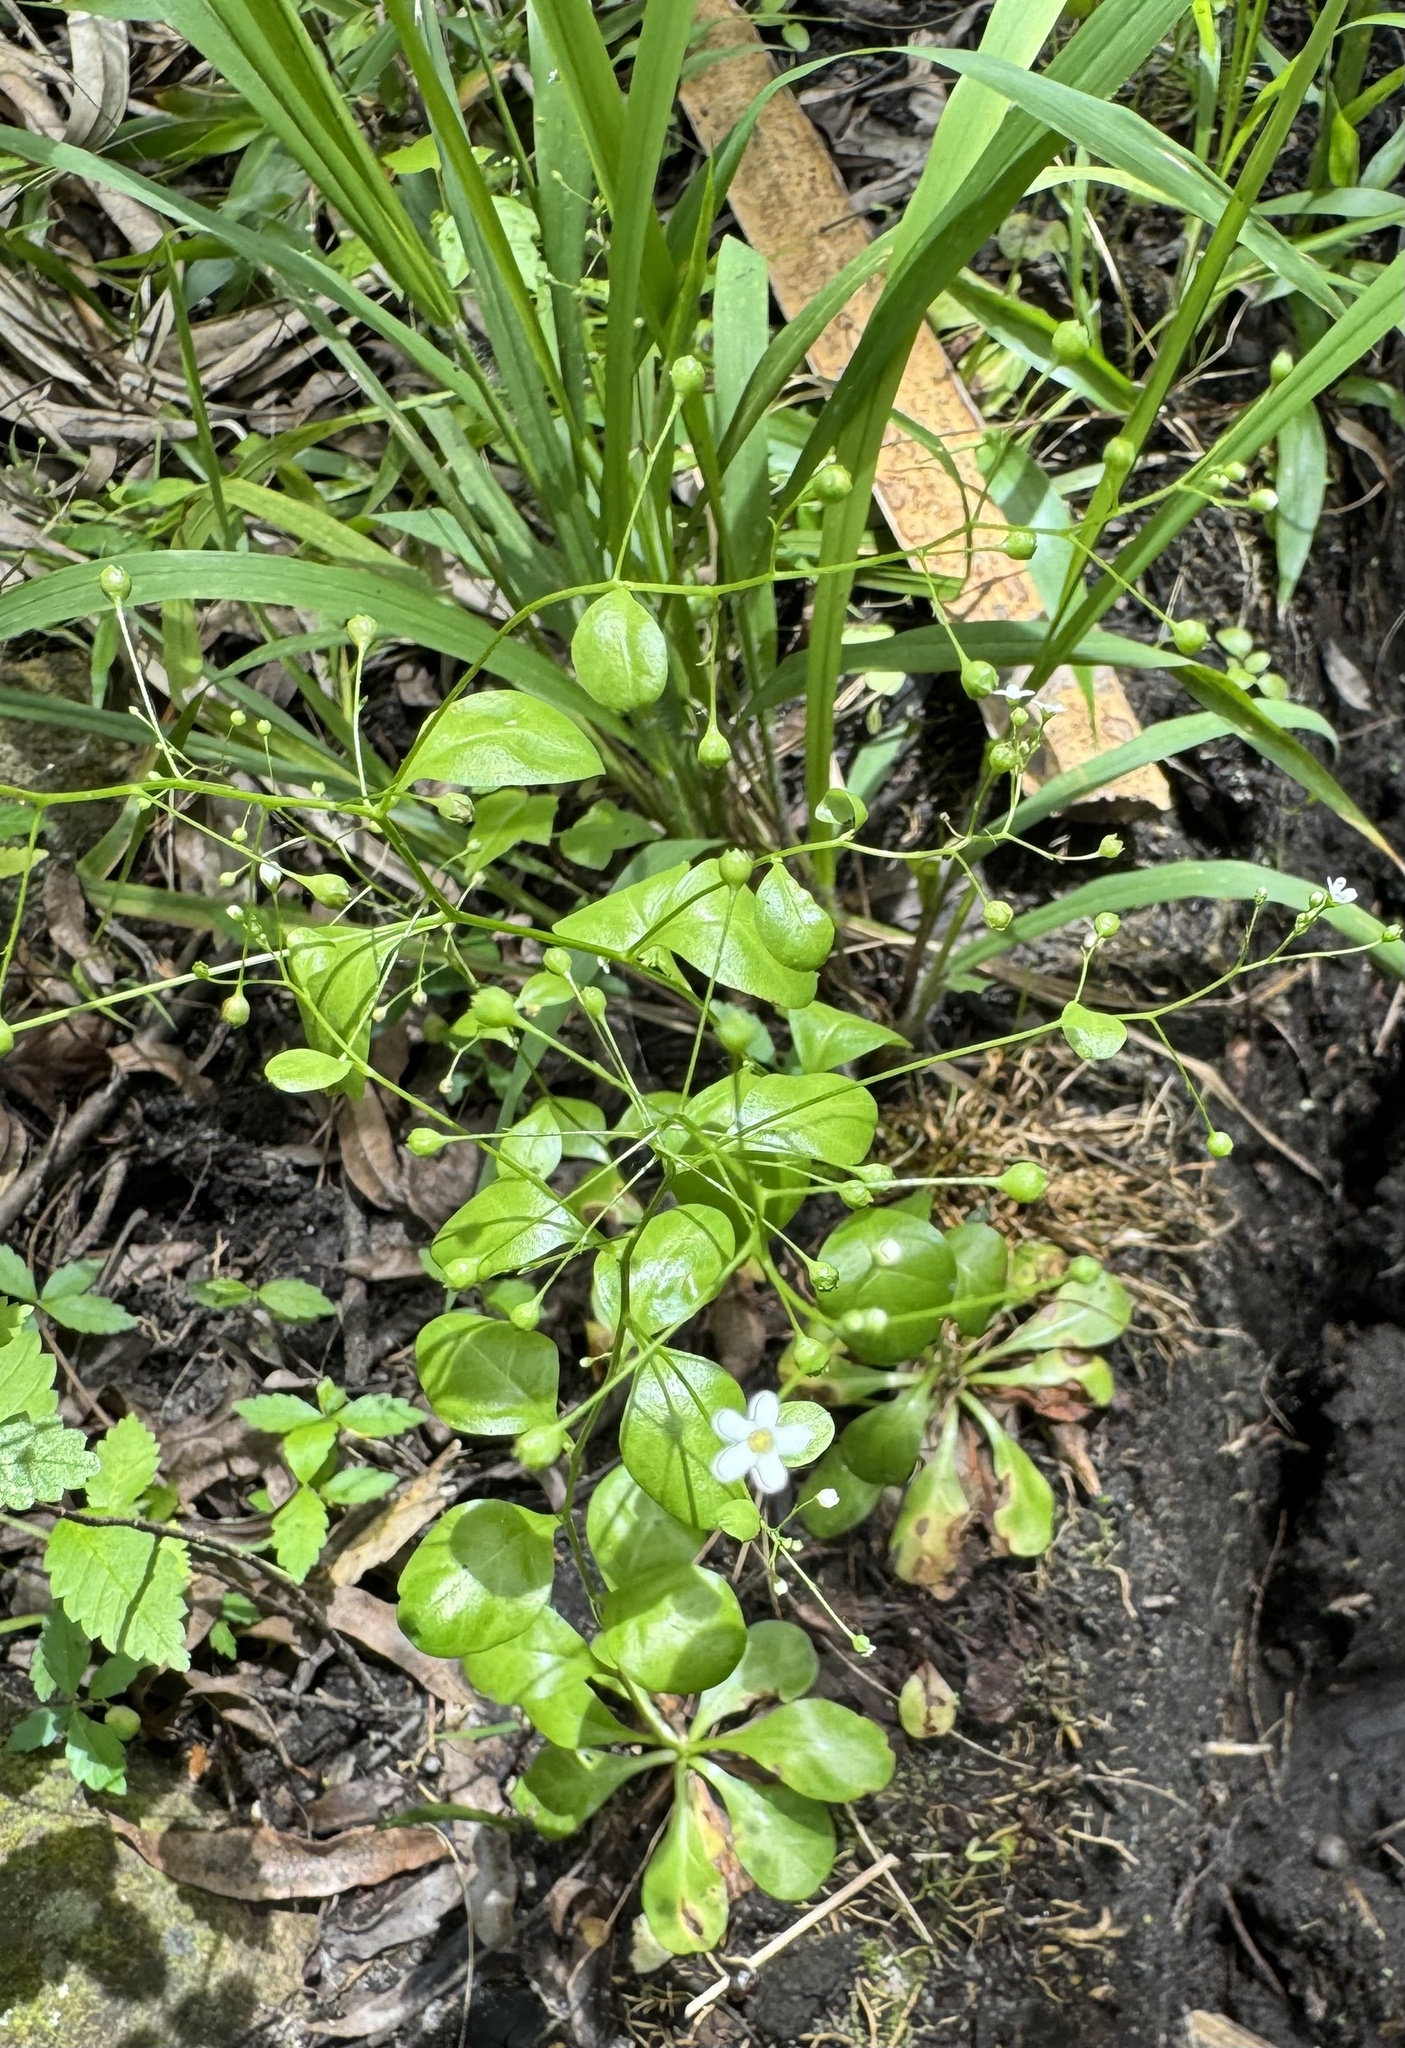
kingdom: Plantae
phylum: Tracheophyta
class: Magnoliopsida
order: Ericales
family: Primulaceae
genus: Samolus
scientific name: Samolus parviflorus
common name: False water pimpernel
